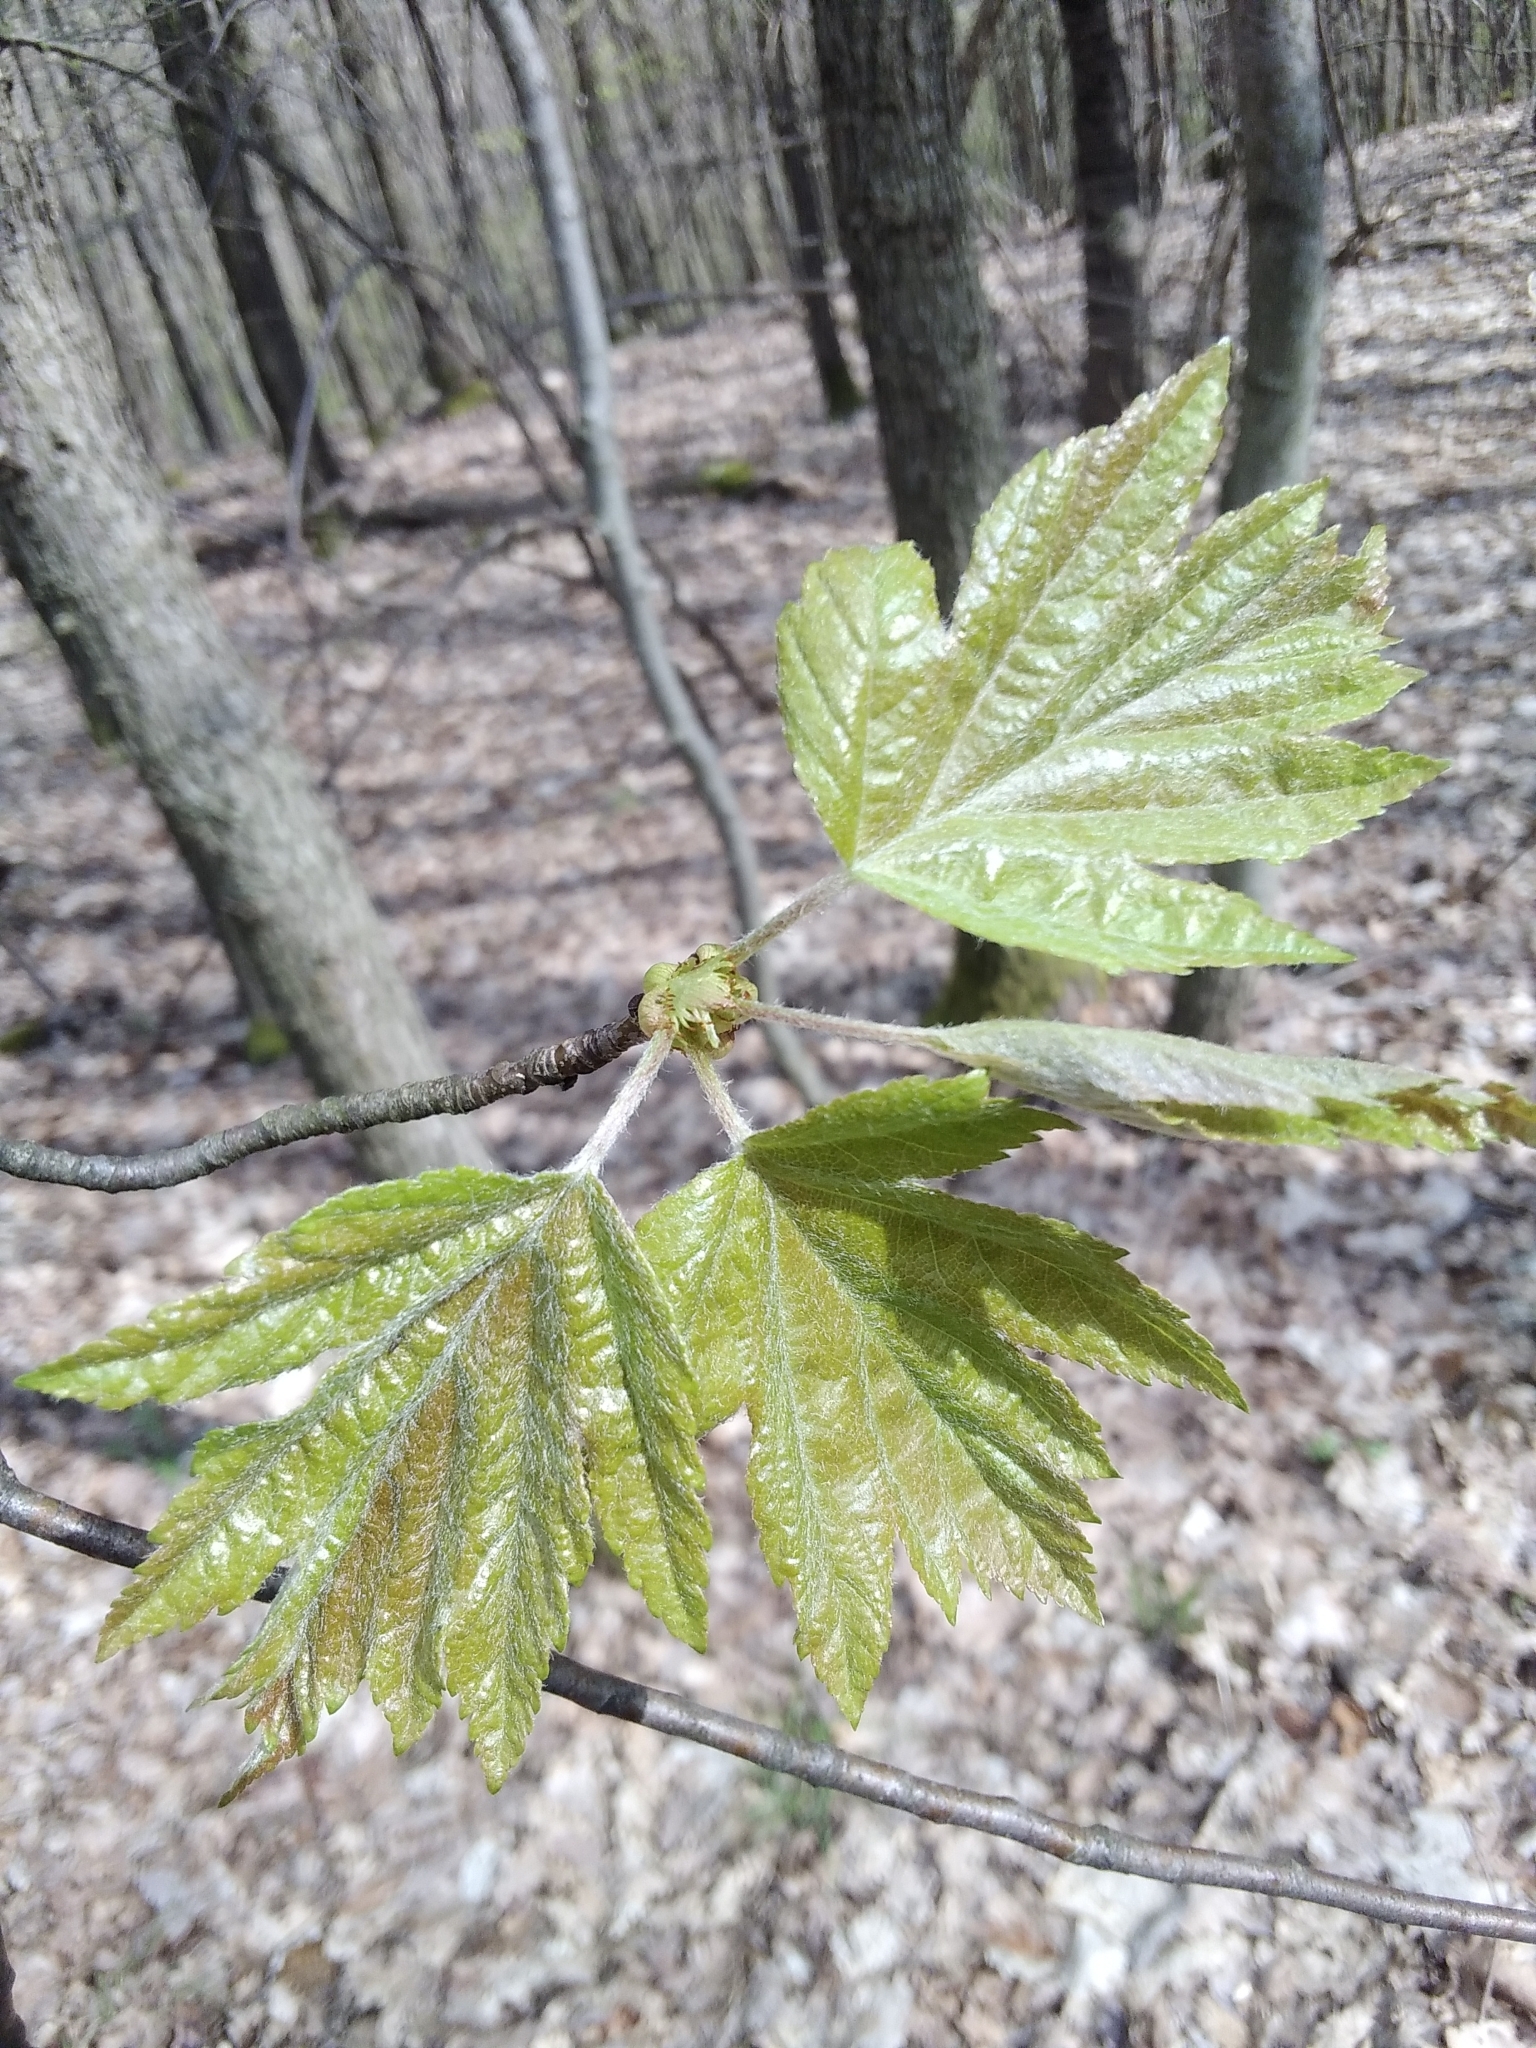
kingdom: Plantae
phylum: Tracheophyta
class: Magnoliopsida
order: Sapindales
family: Sapindaceae
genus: Acer
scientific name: Acer pseudoplatanus
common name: Sycamore
